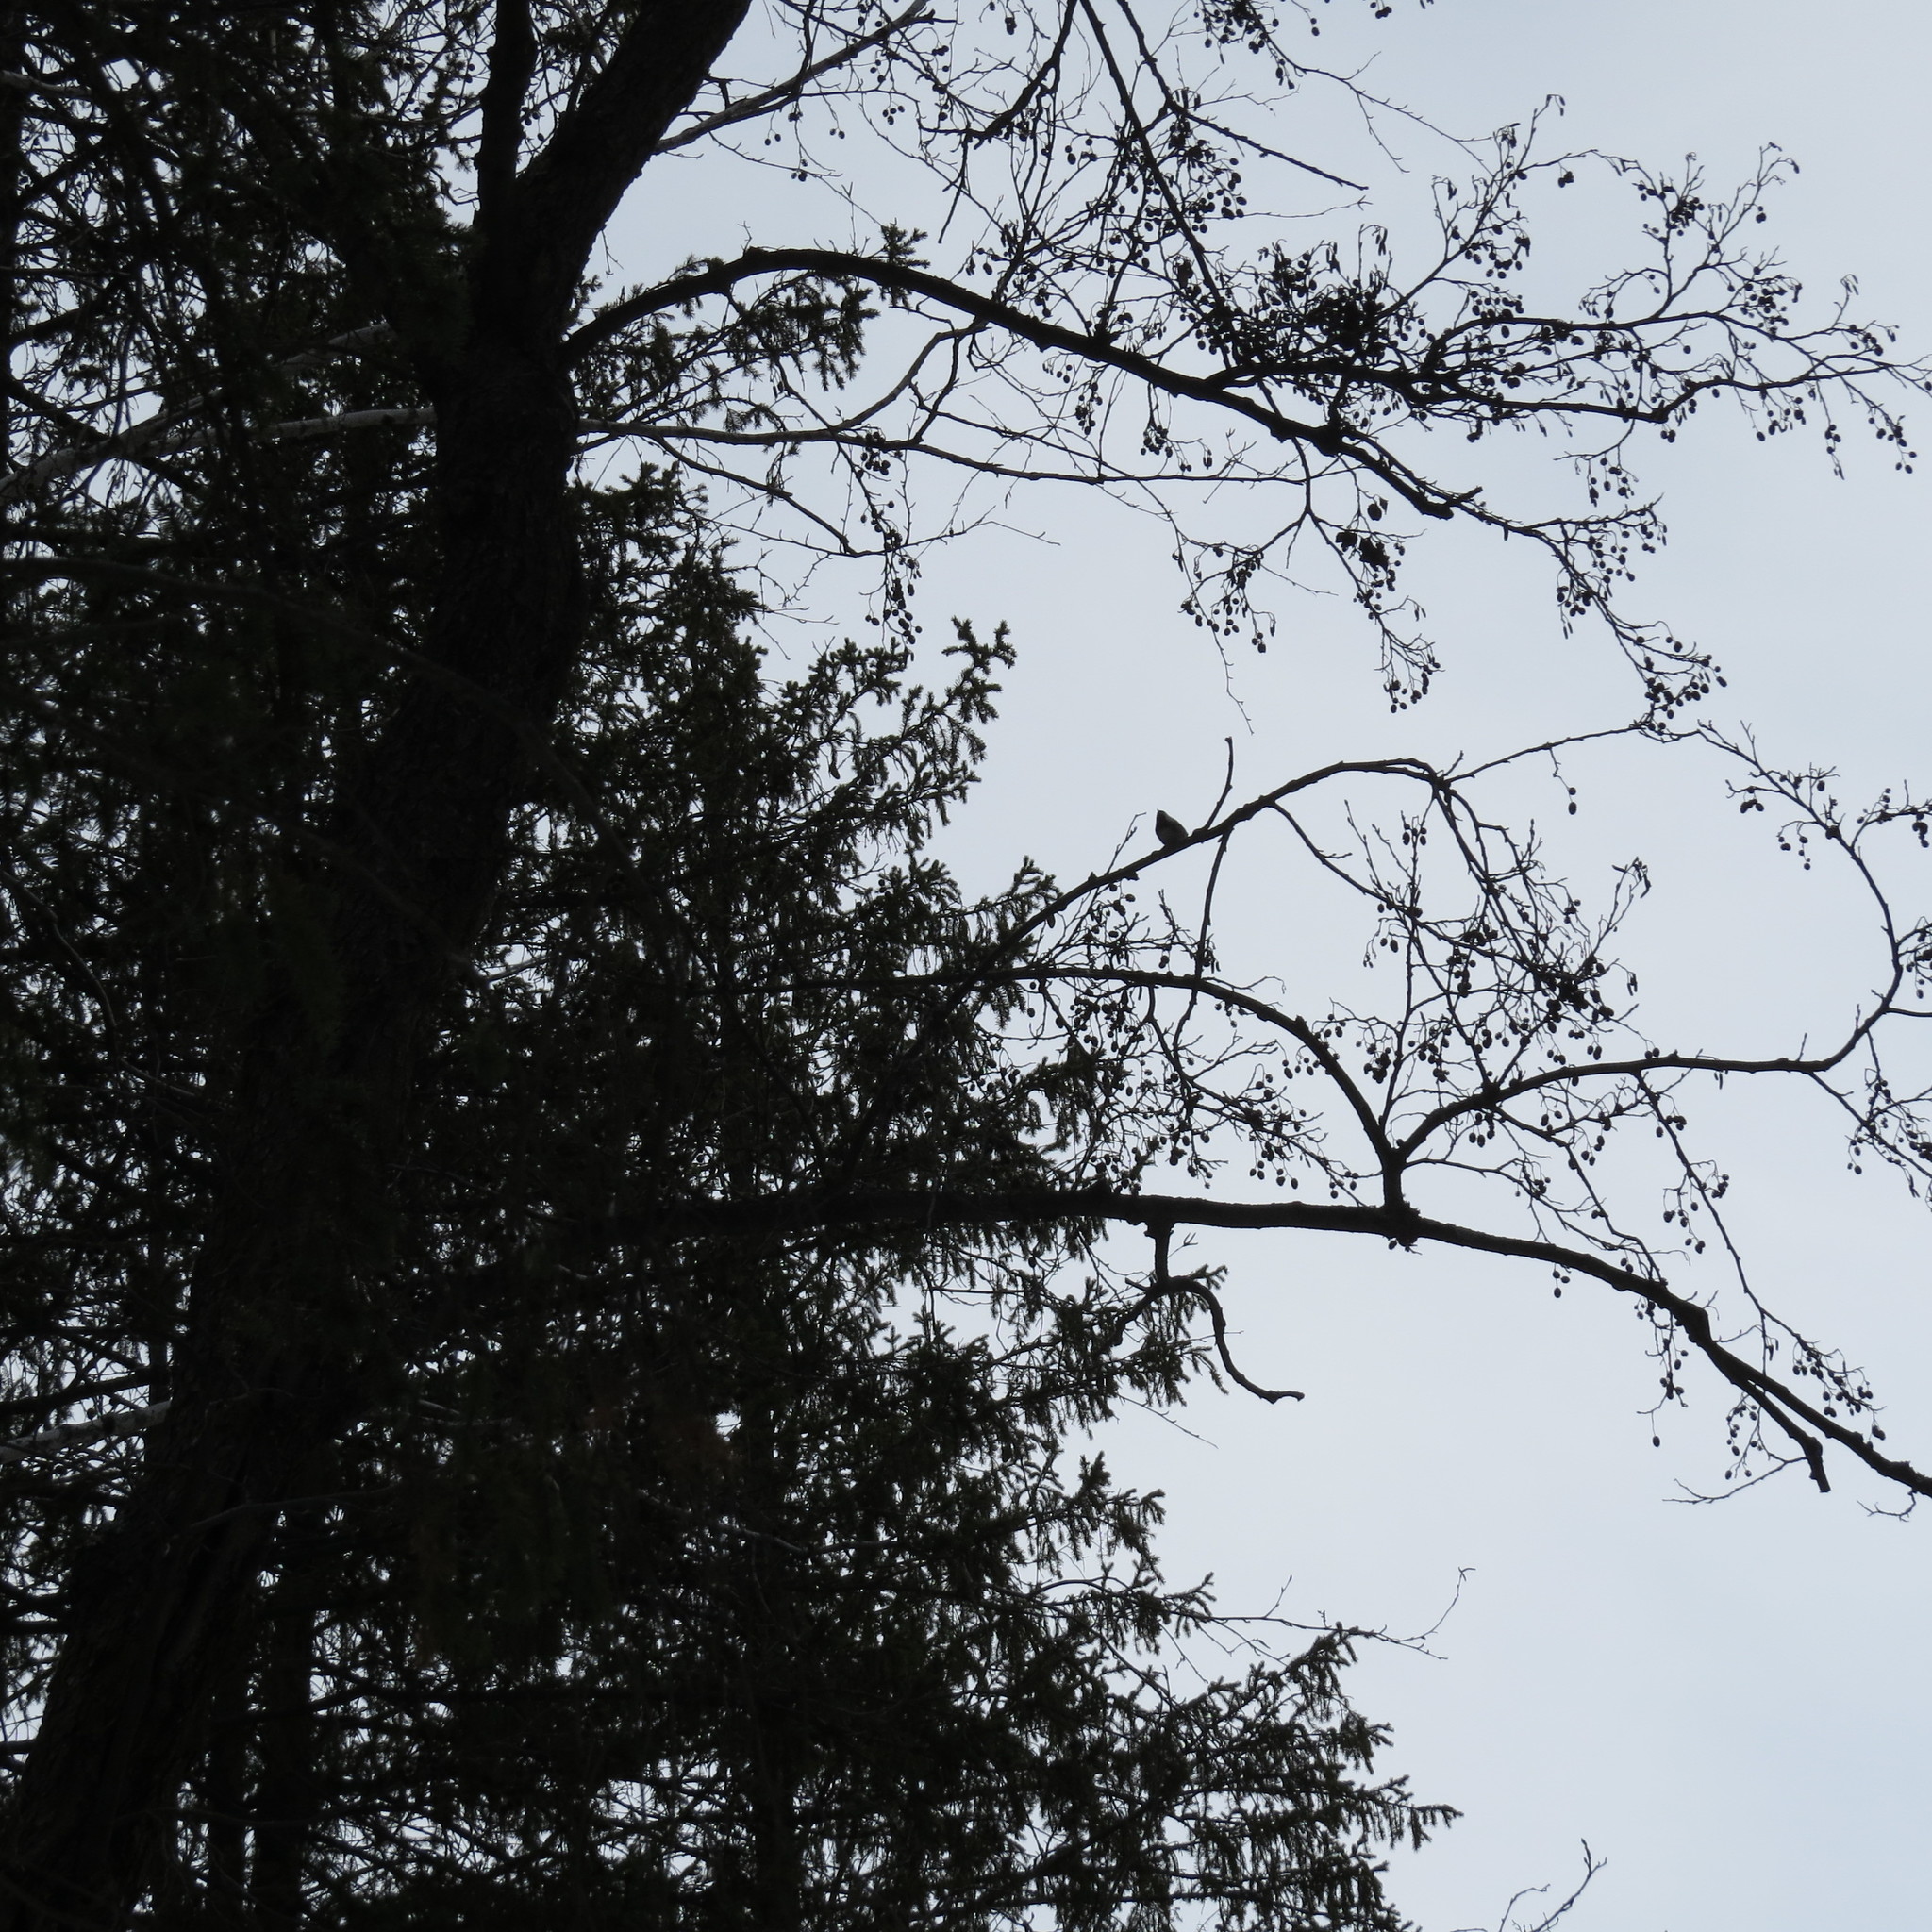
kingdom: Animalia
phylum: Chordata
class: Aves
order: Passeriformes
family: Paridae
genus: Periparus
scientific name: Periparus ater
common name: Coal tit
